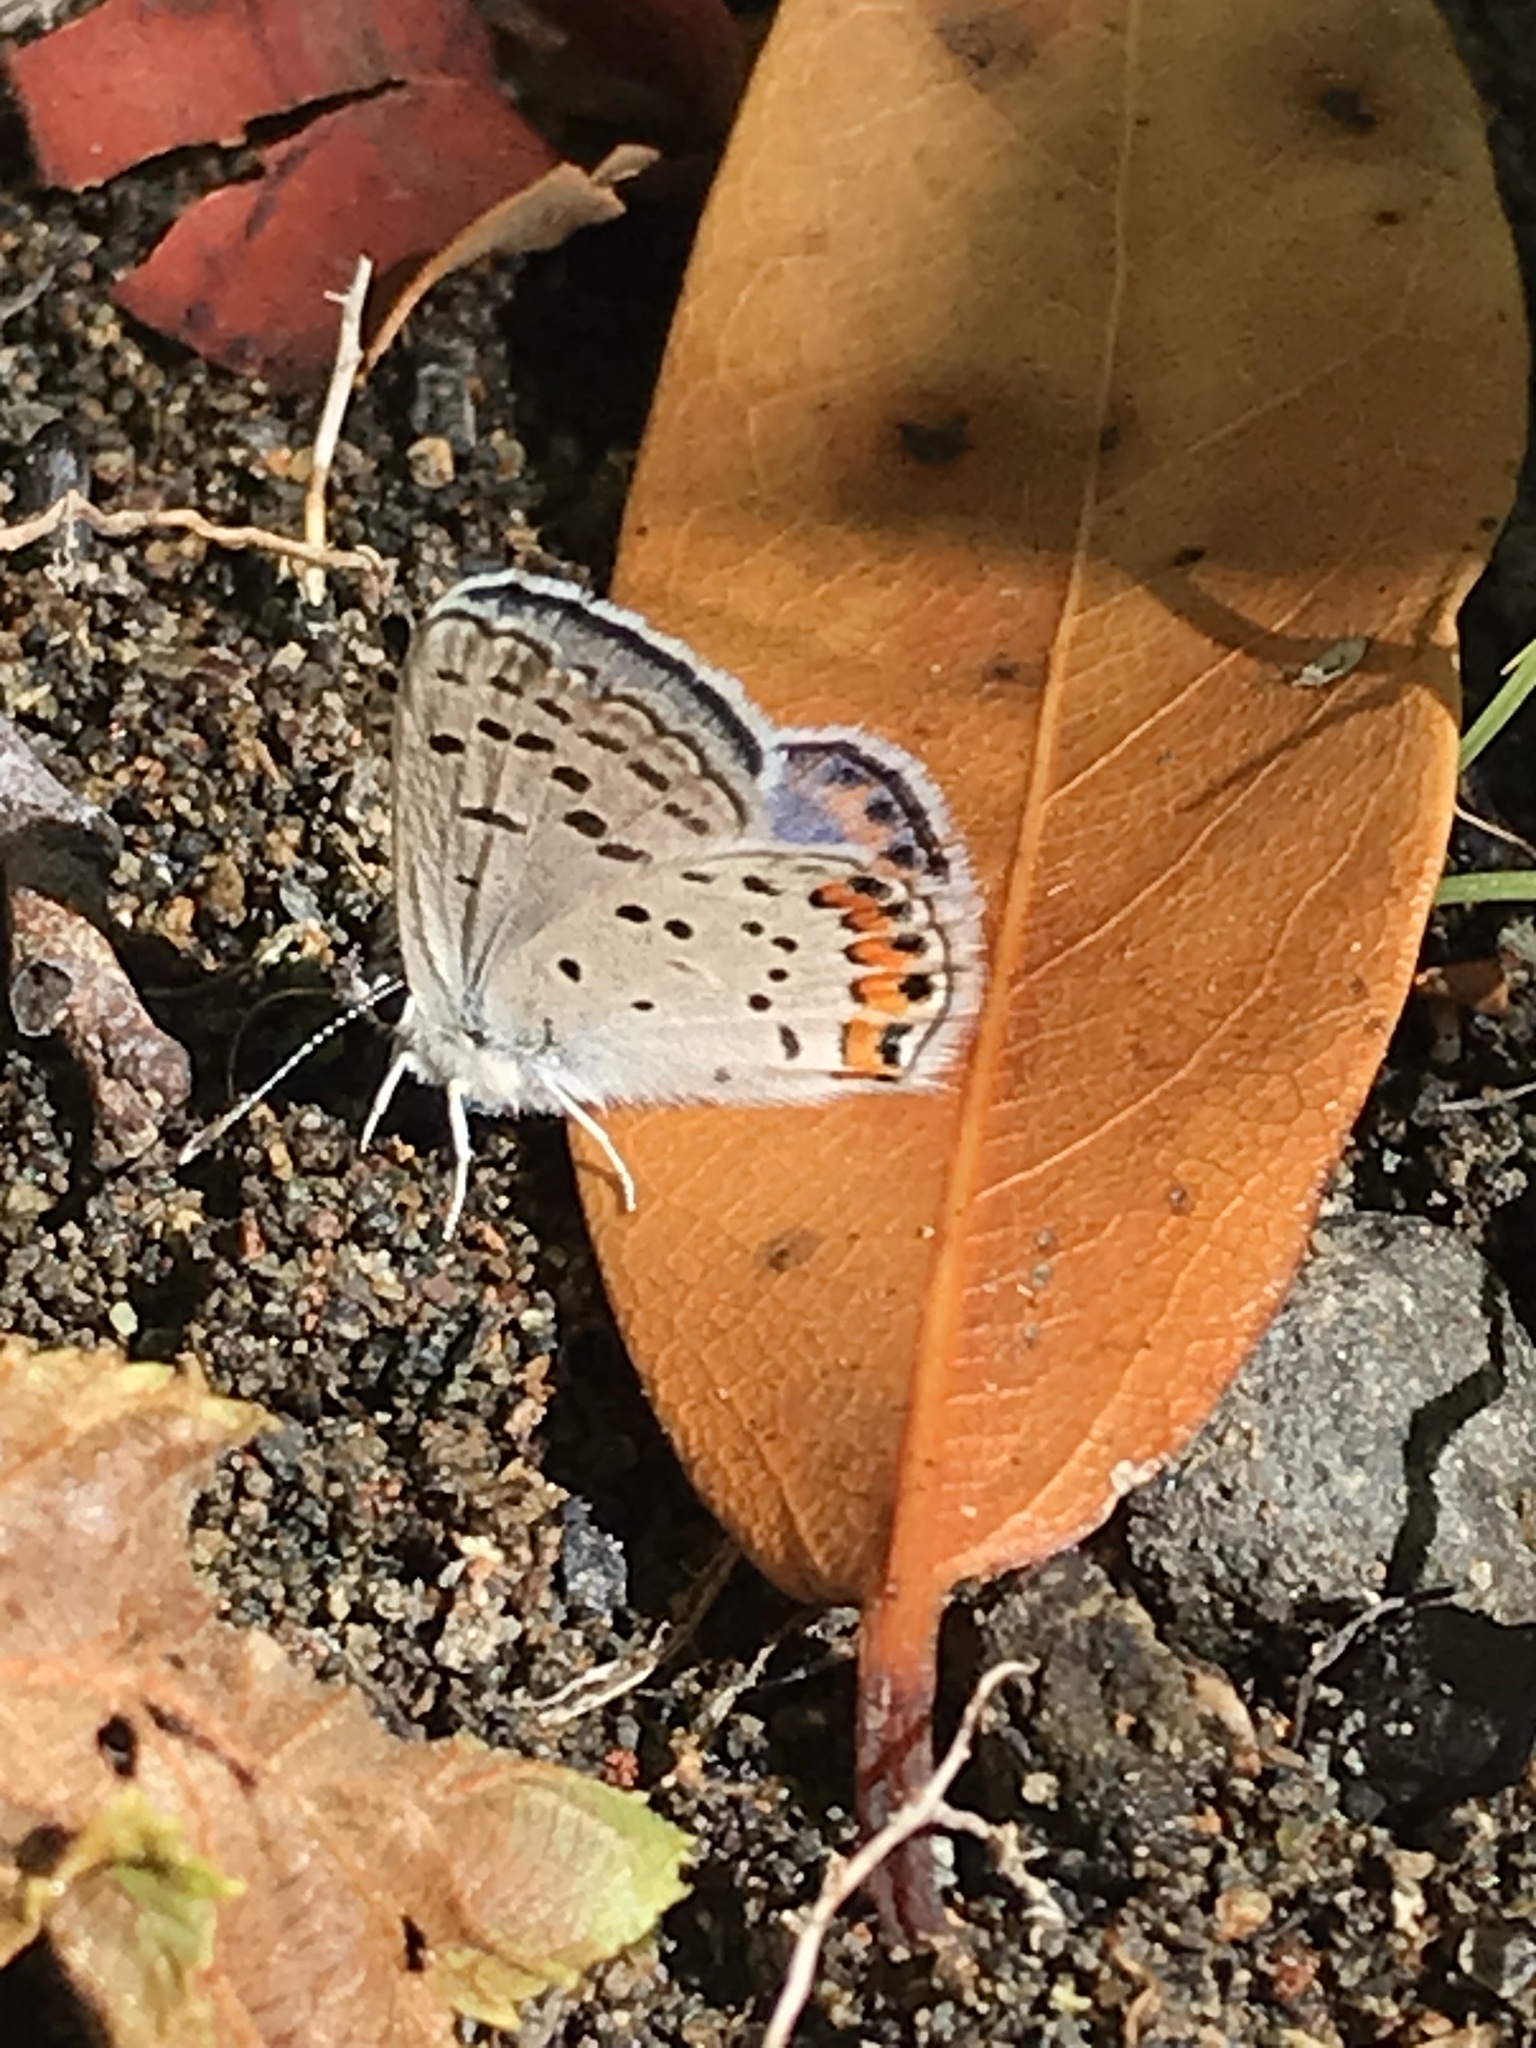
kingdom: Animalia
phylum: Arthropoda
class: Insecta
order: Lepidoptera
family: Lycaenidae
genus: Icaricia
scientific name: Icaricia acmon
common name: Acmon blue
